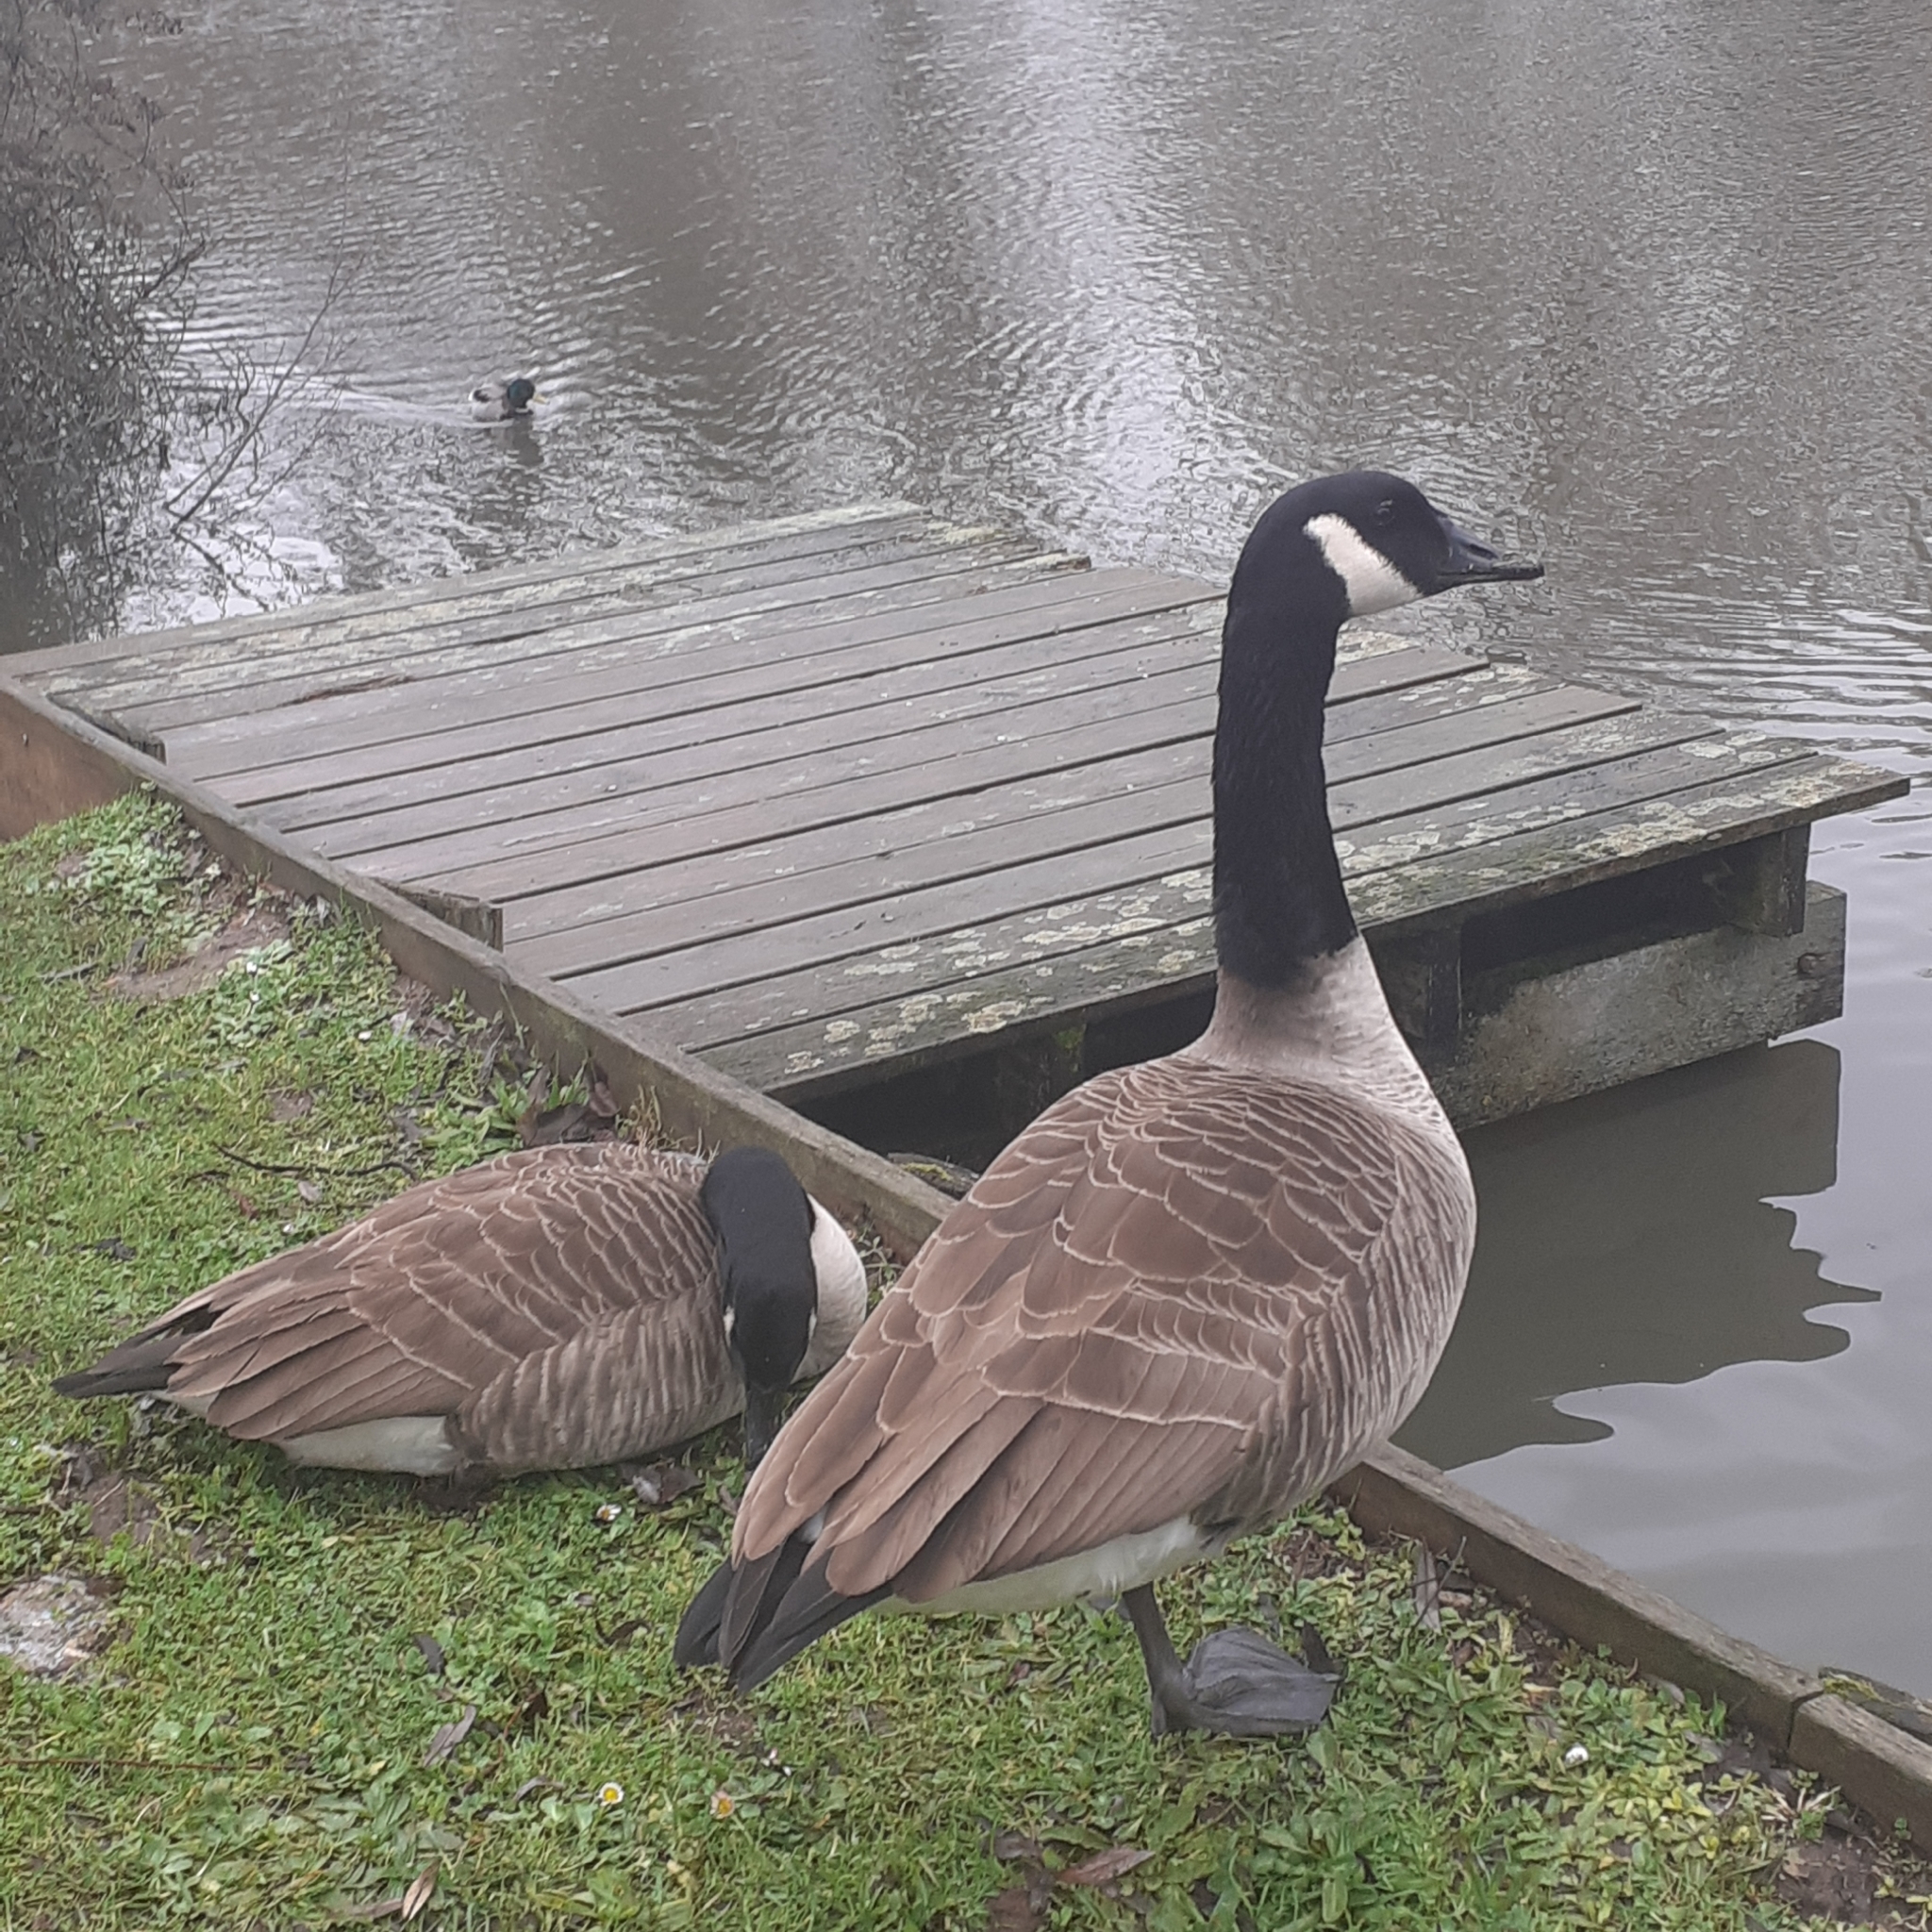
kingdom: Animalia
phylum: Chordata
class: Aves
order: Anseriformes
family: Anatidae
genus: Branta
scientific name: Branta canadensis
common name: Canada goose
